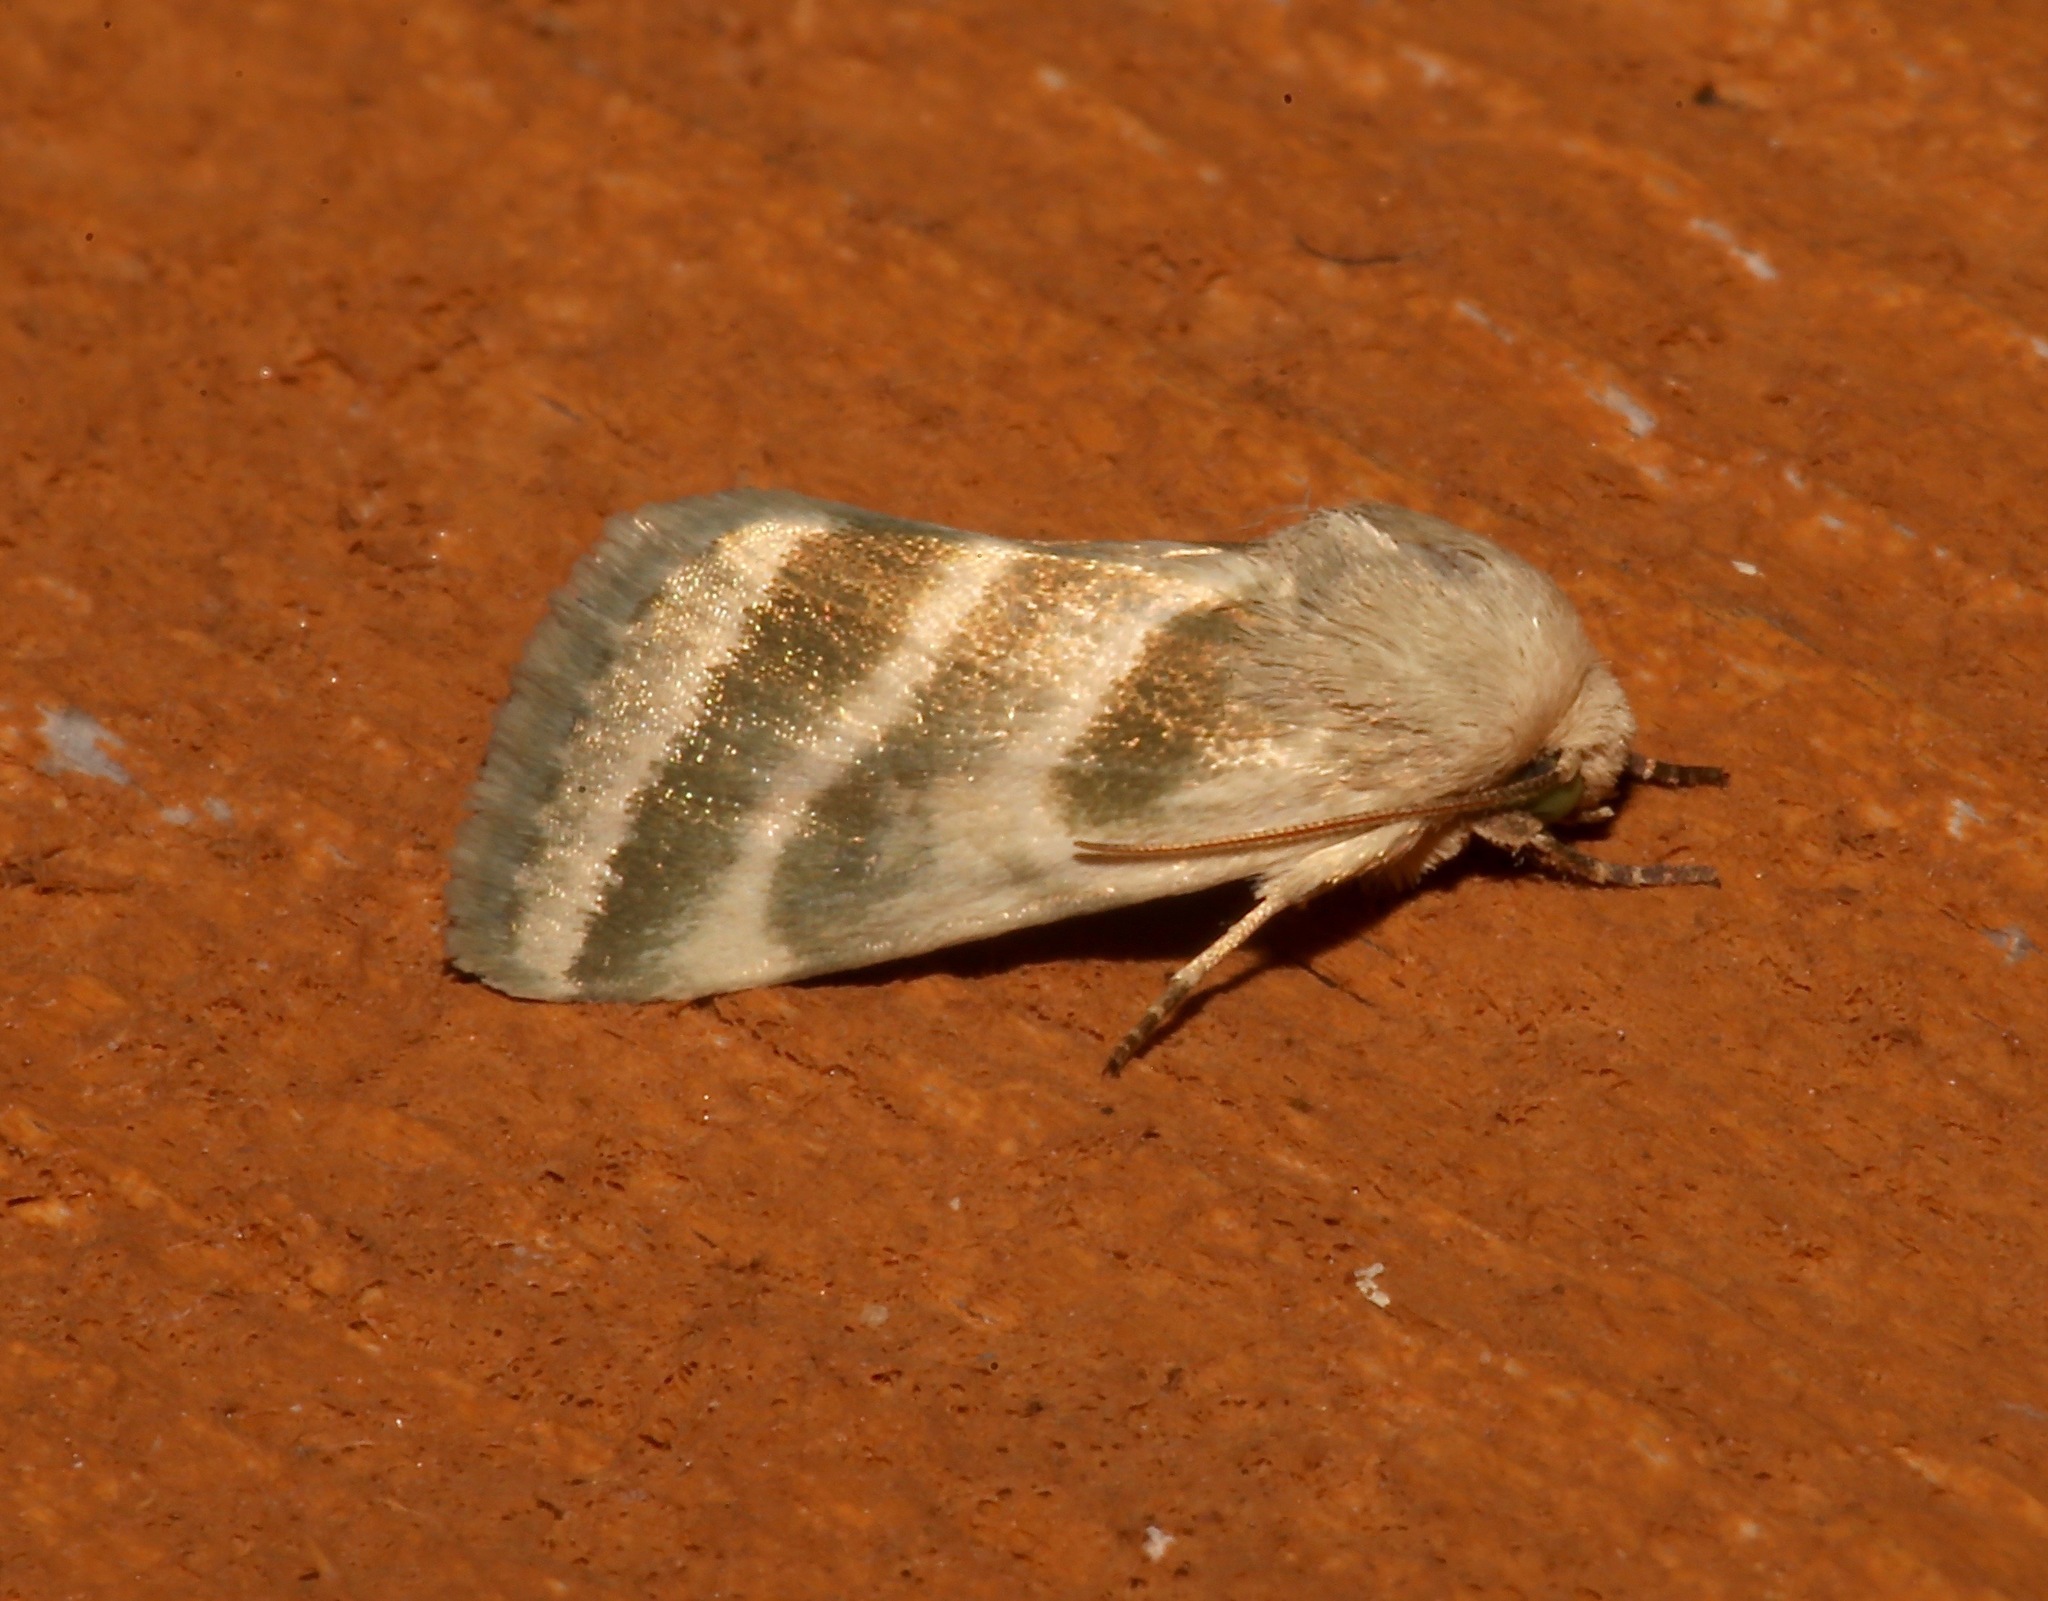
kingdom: Animalia
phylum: Arthropoda
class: Insecta
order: Lepidoptera
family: Noctuidae
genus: Schinia
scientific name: Schinia trifascia
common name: Three-lined flower moth
